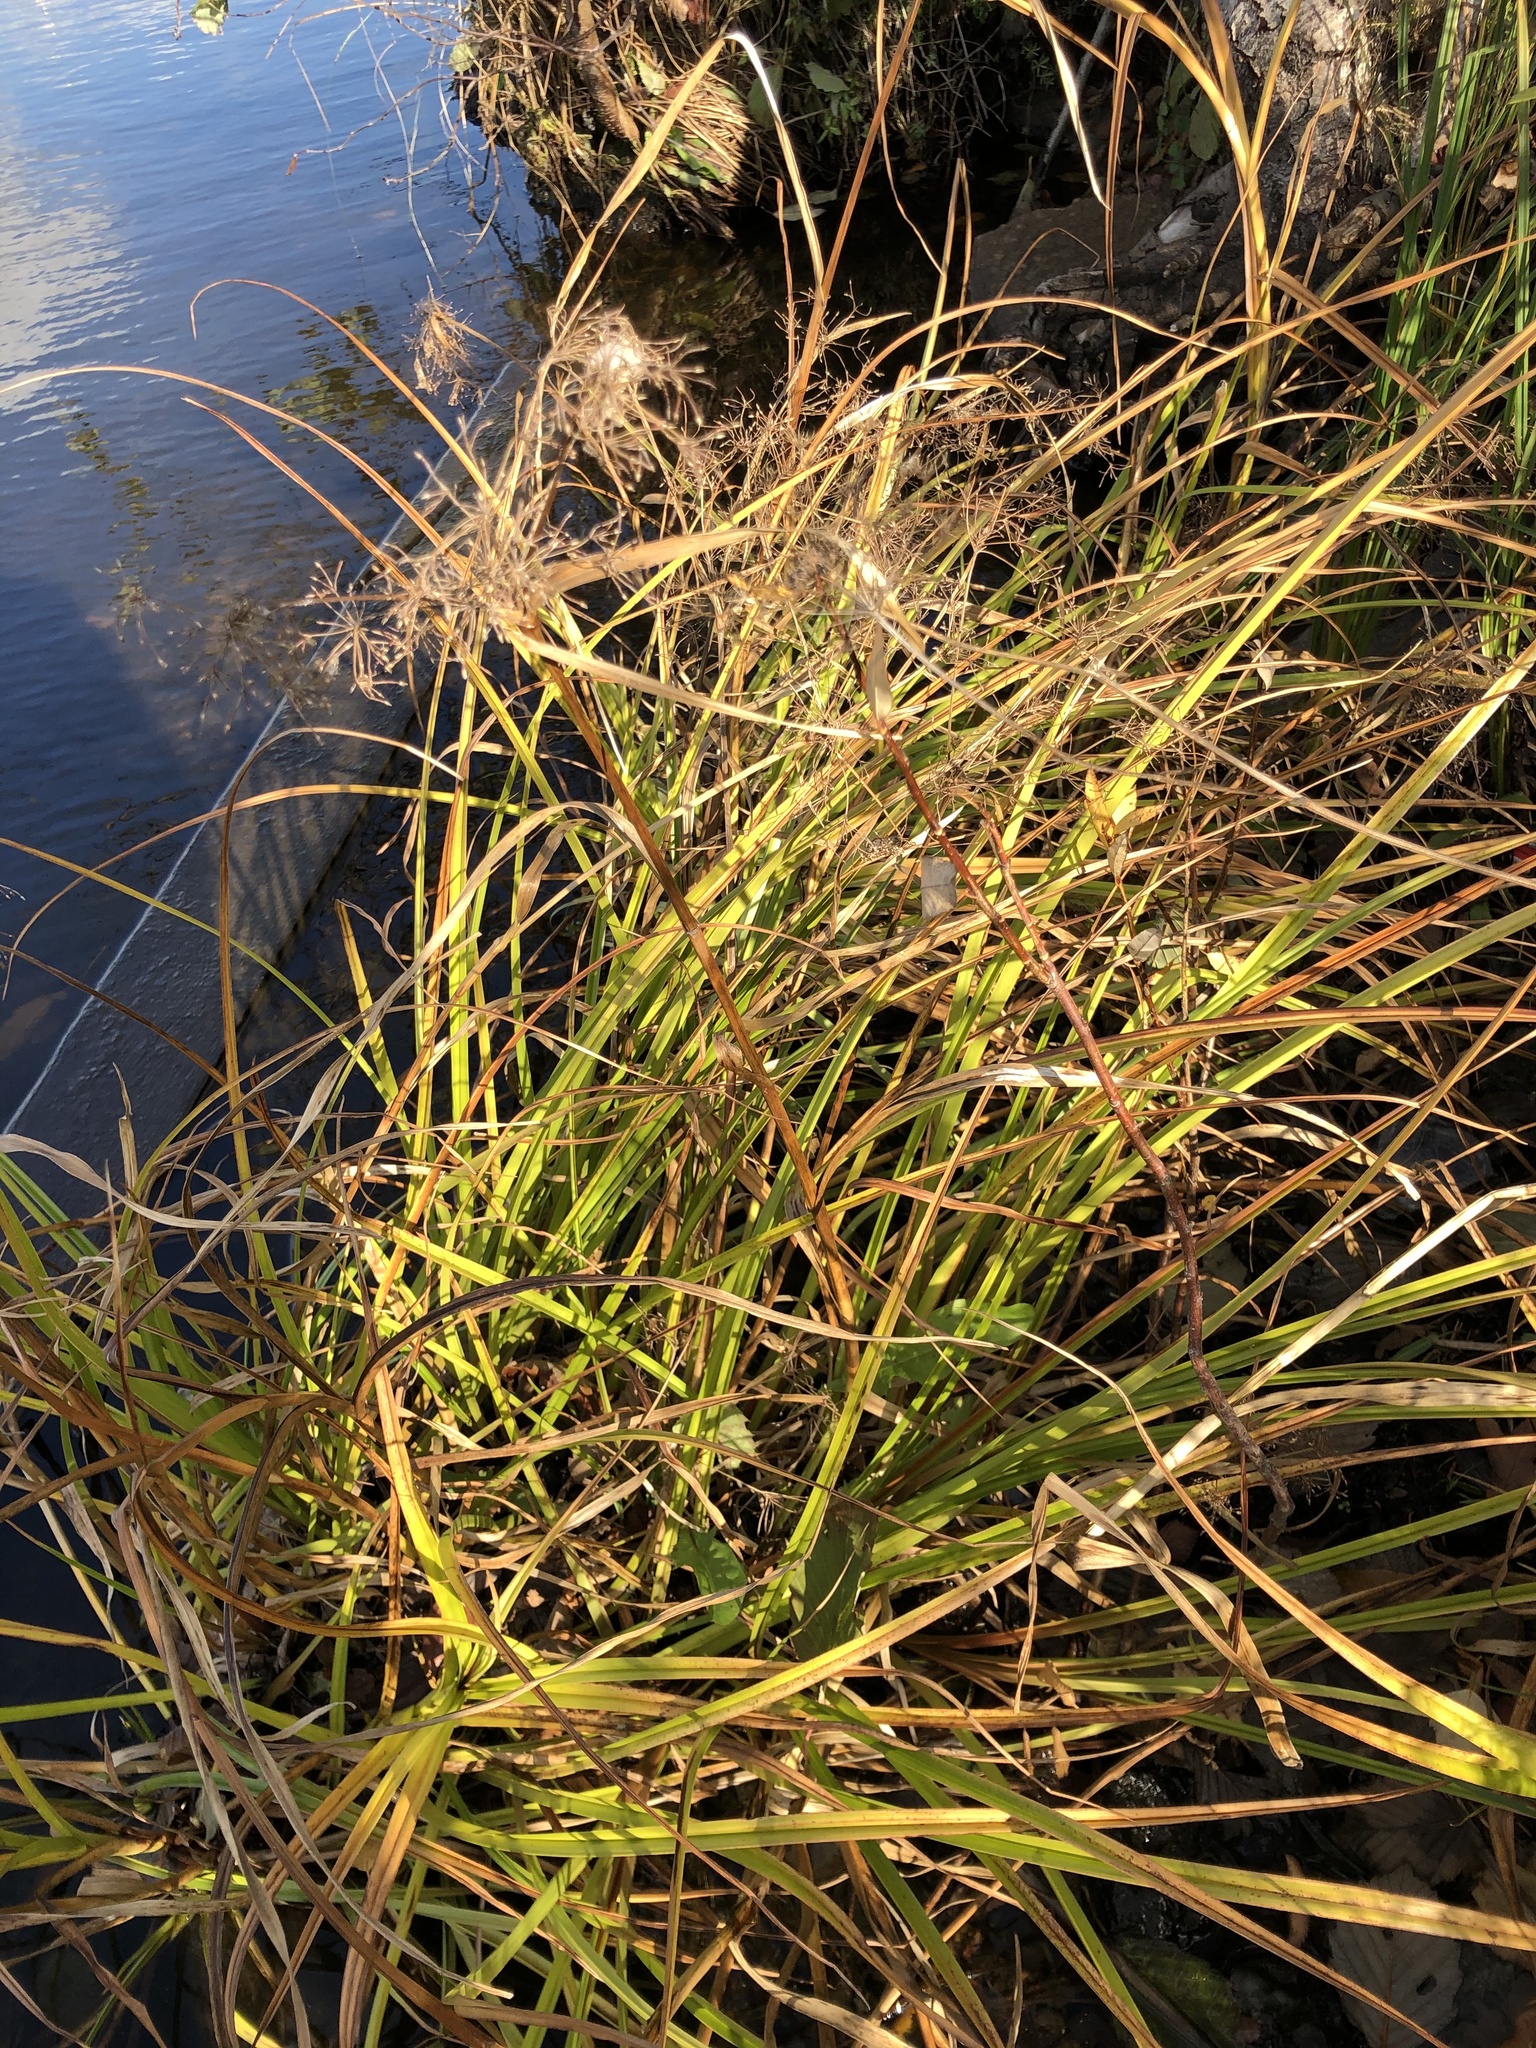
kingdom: Plantae
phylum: Tracheophyta
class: Liliopsida
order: Poales
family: Cyperaceae
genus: Scirpus
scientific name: Scirpus sylvaticus
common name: Wood club-rush
